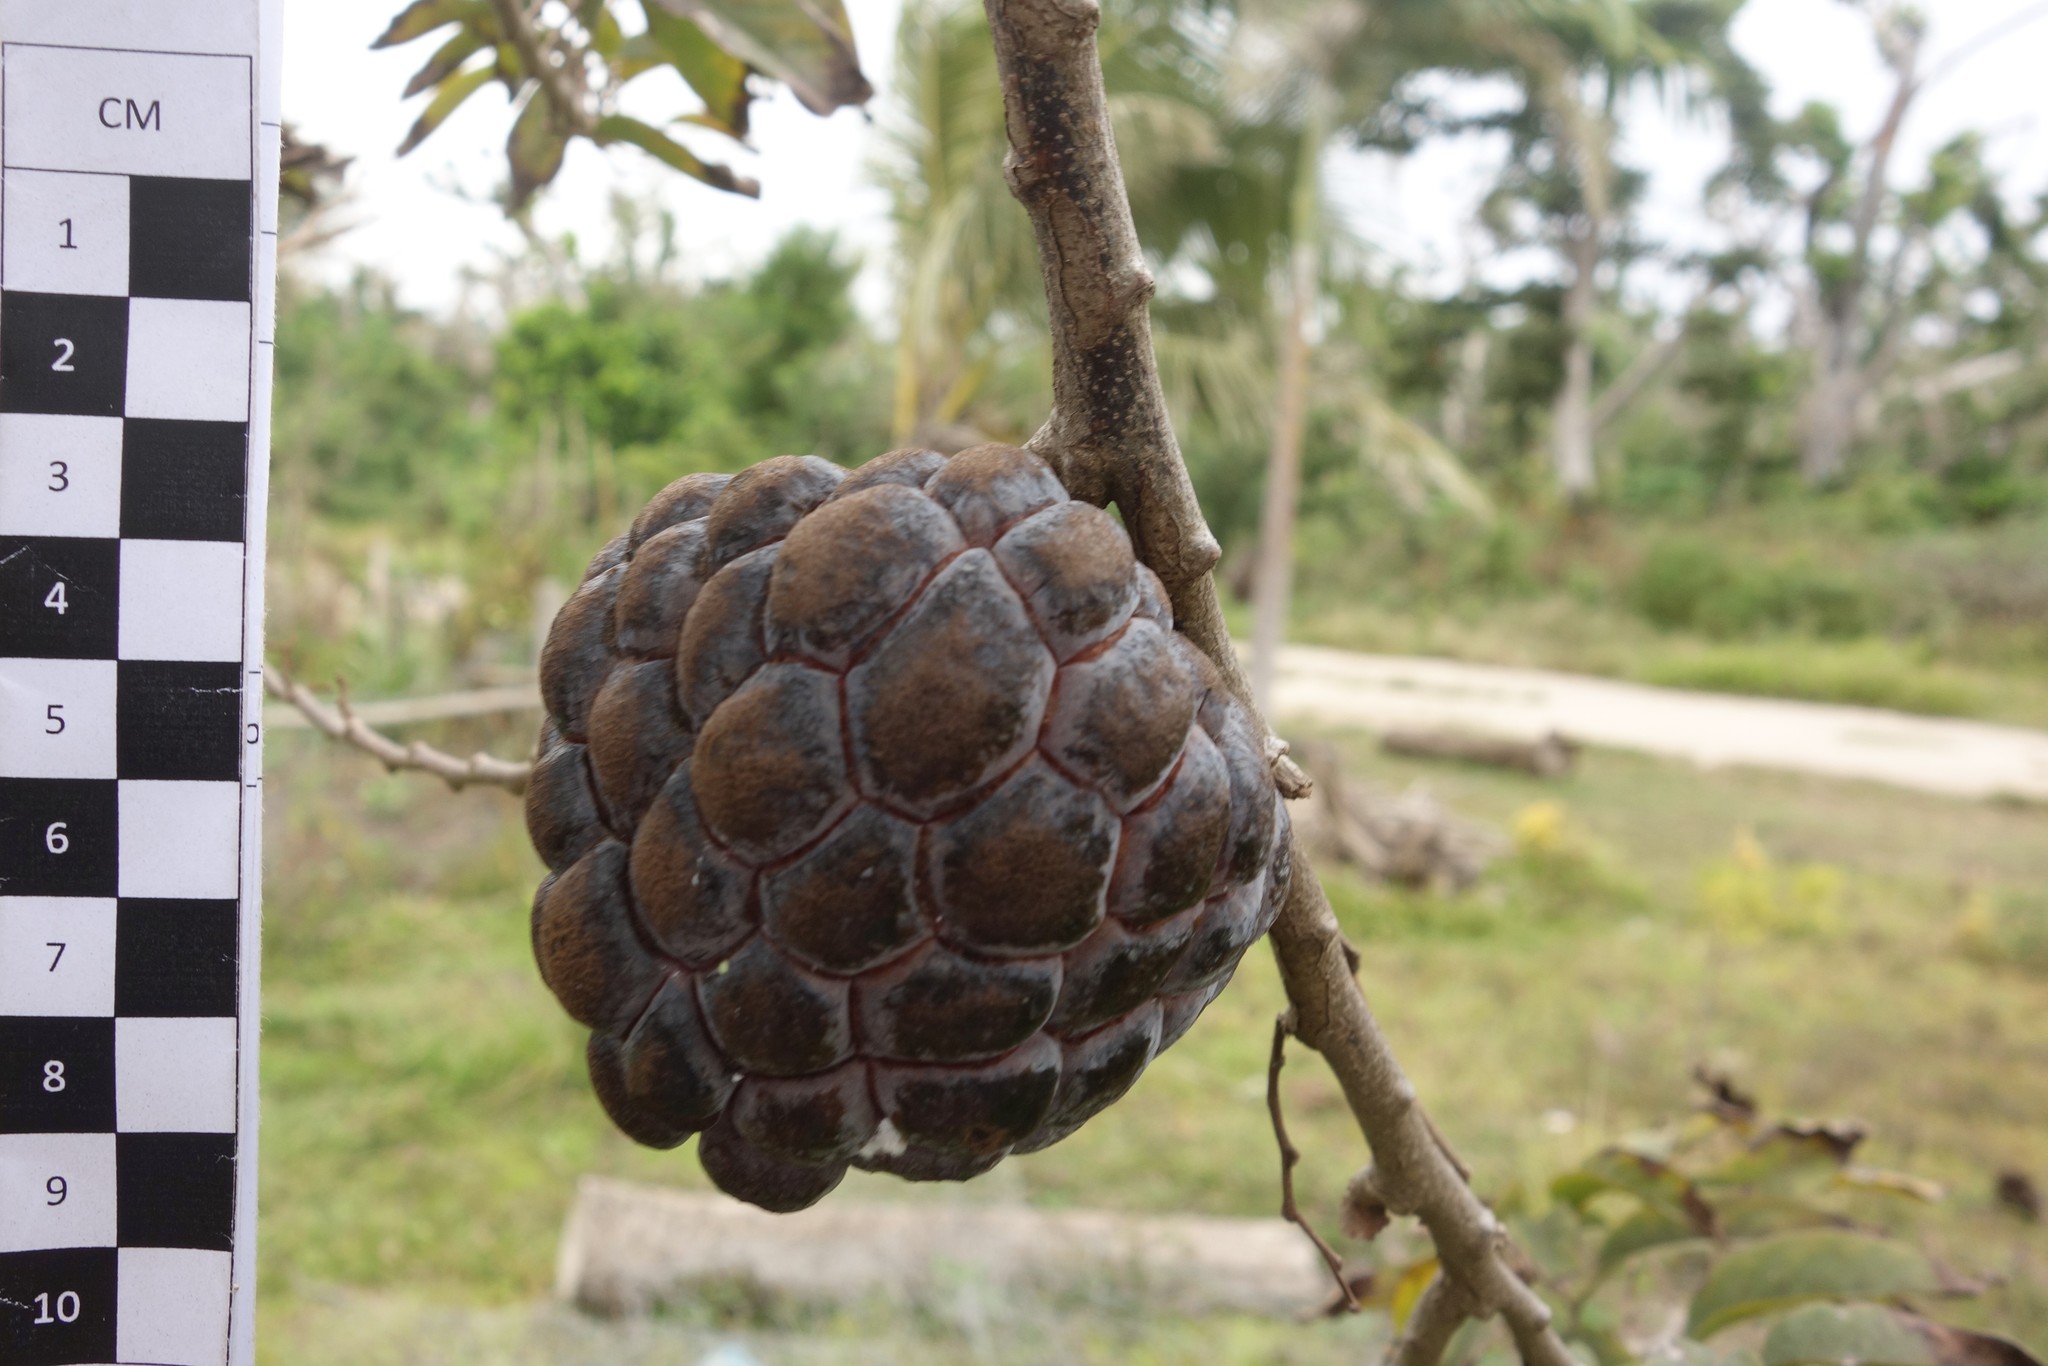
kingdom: Plantae
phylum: Tracheophyta
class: Magnoliopsida
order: Magnoliales
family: Annonaceae
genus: Annona
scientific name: Annona squamosa
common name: Custard-apple
